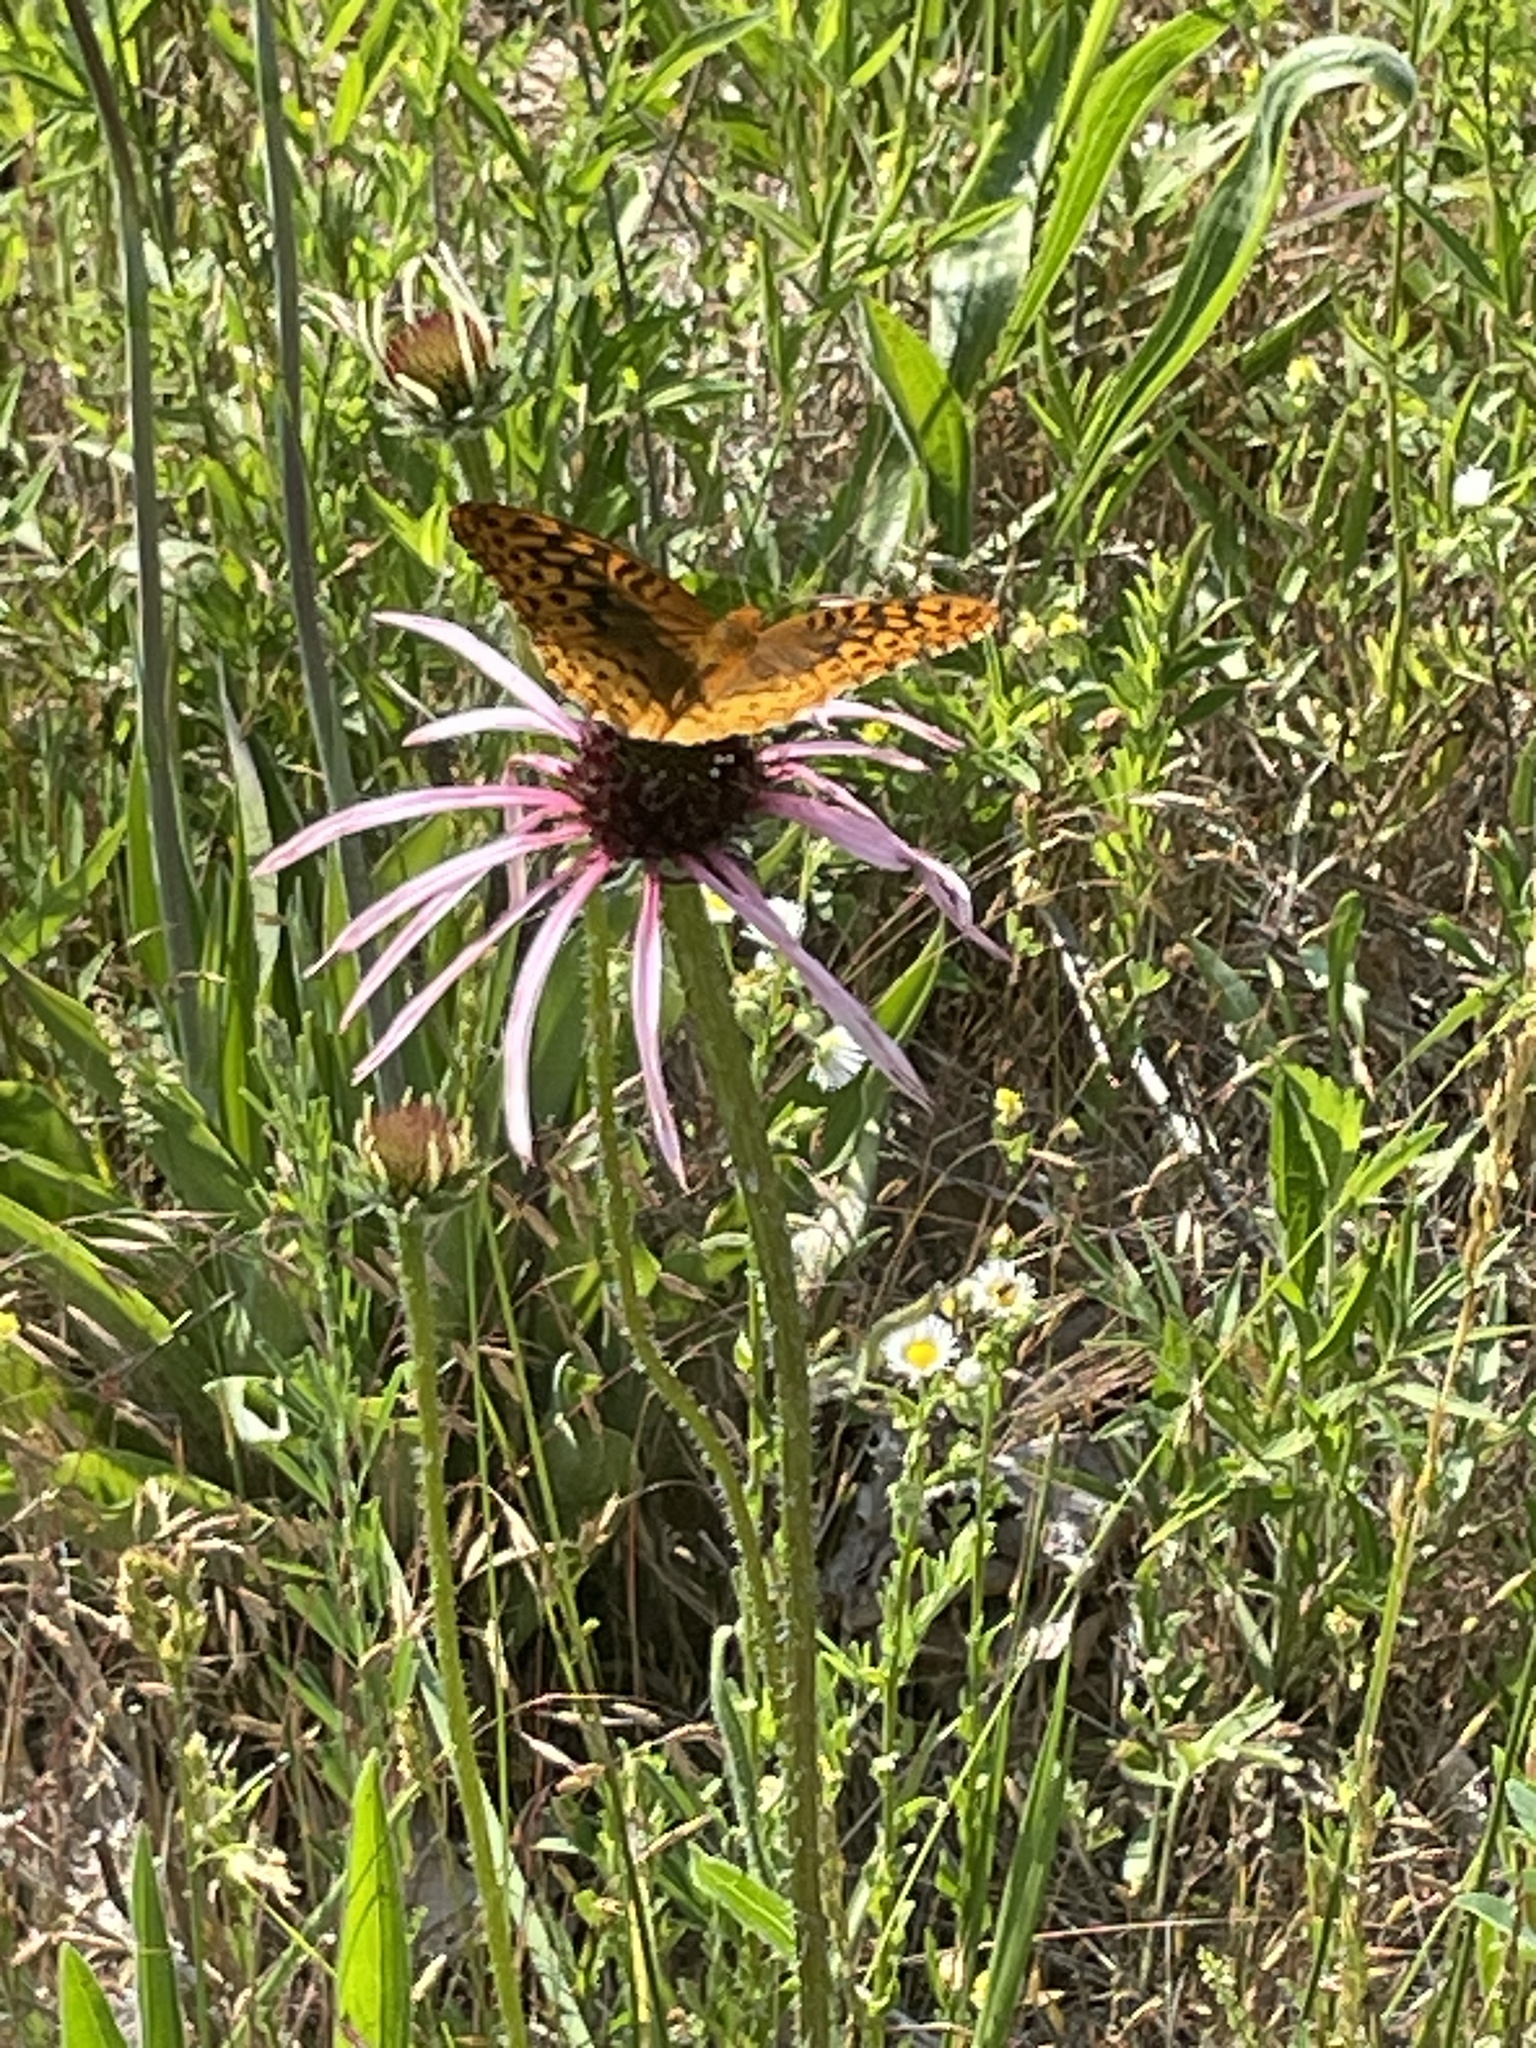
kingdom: Animalia
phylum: Arthropoda
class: Insecta
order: Lepidoptera
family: Nymphalidae
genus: Speyeria
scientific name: Speyeria cybele
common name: Great spangled fritillary
